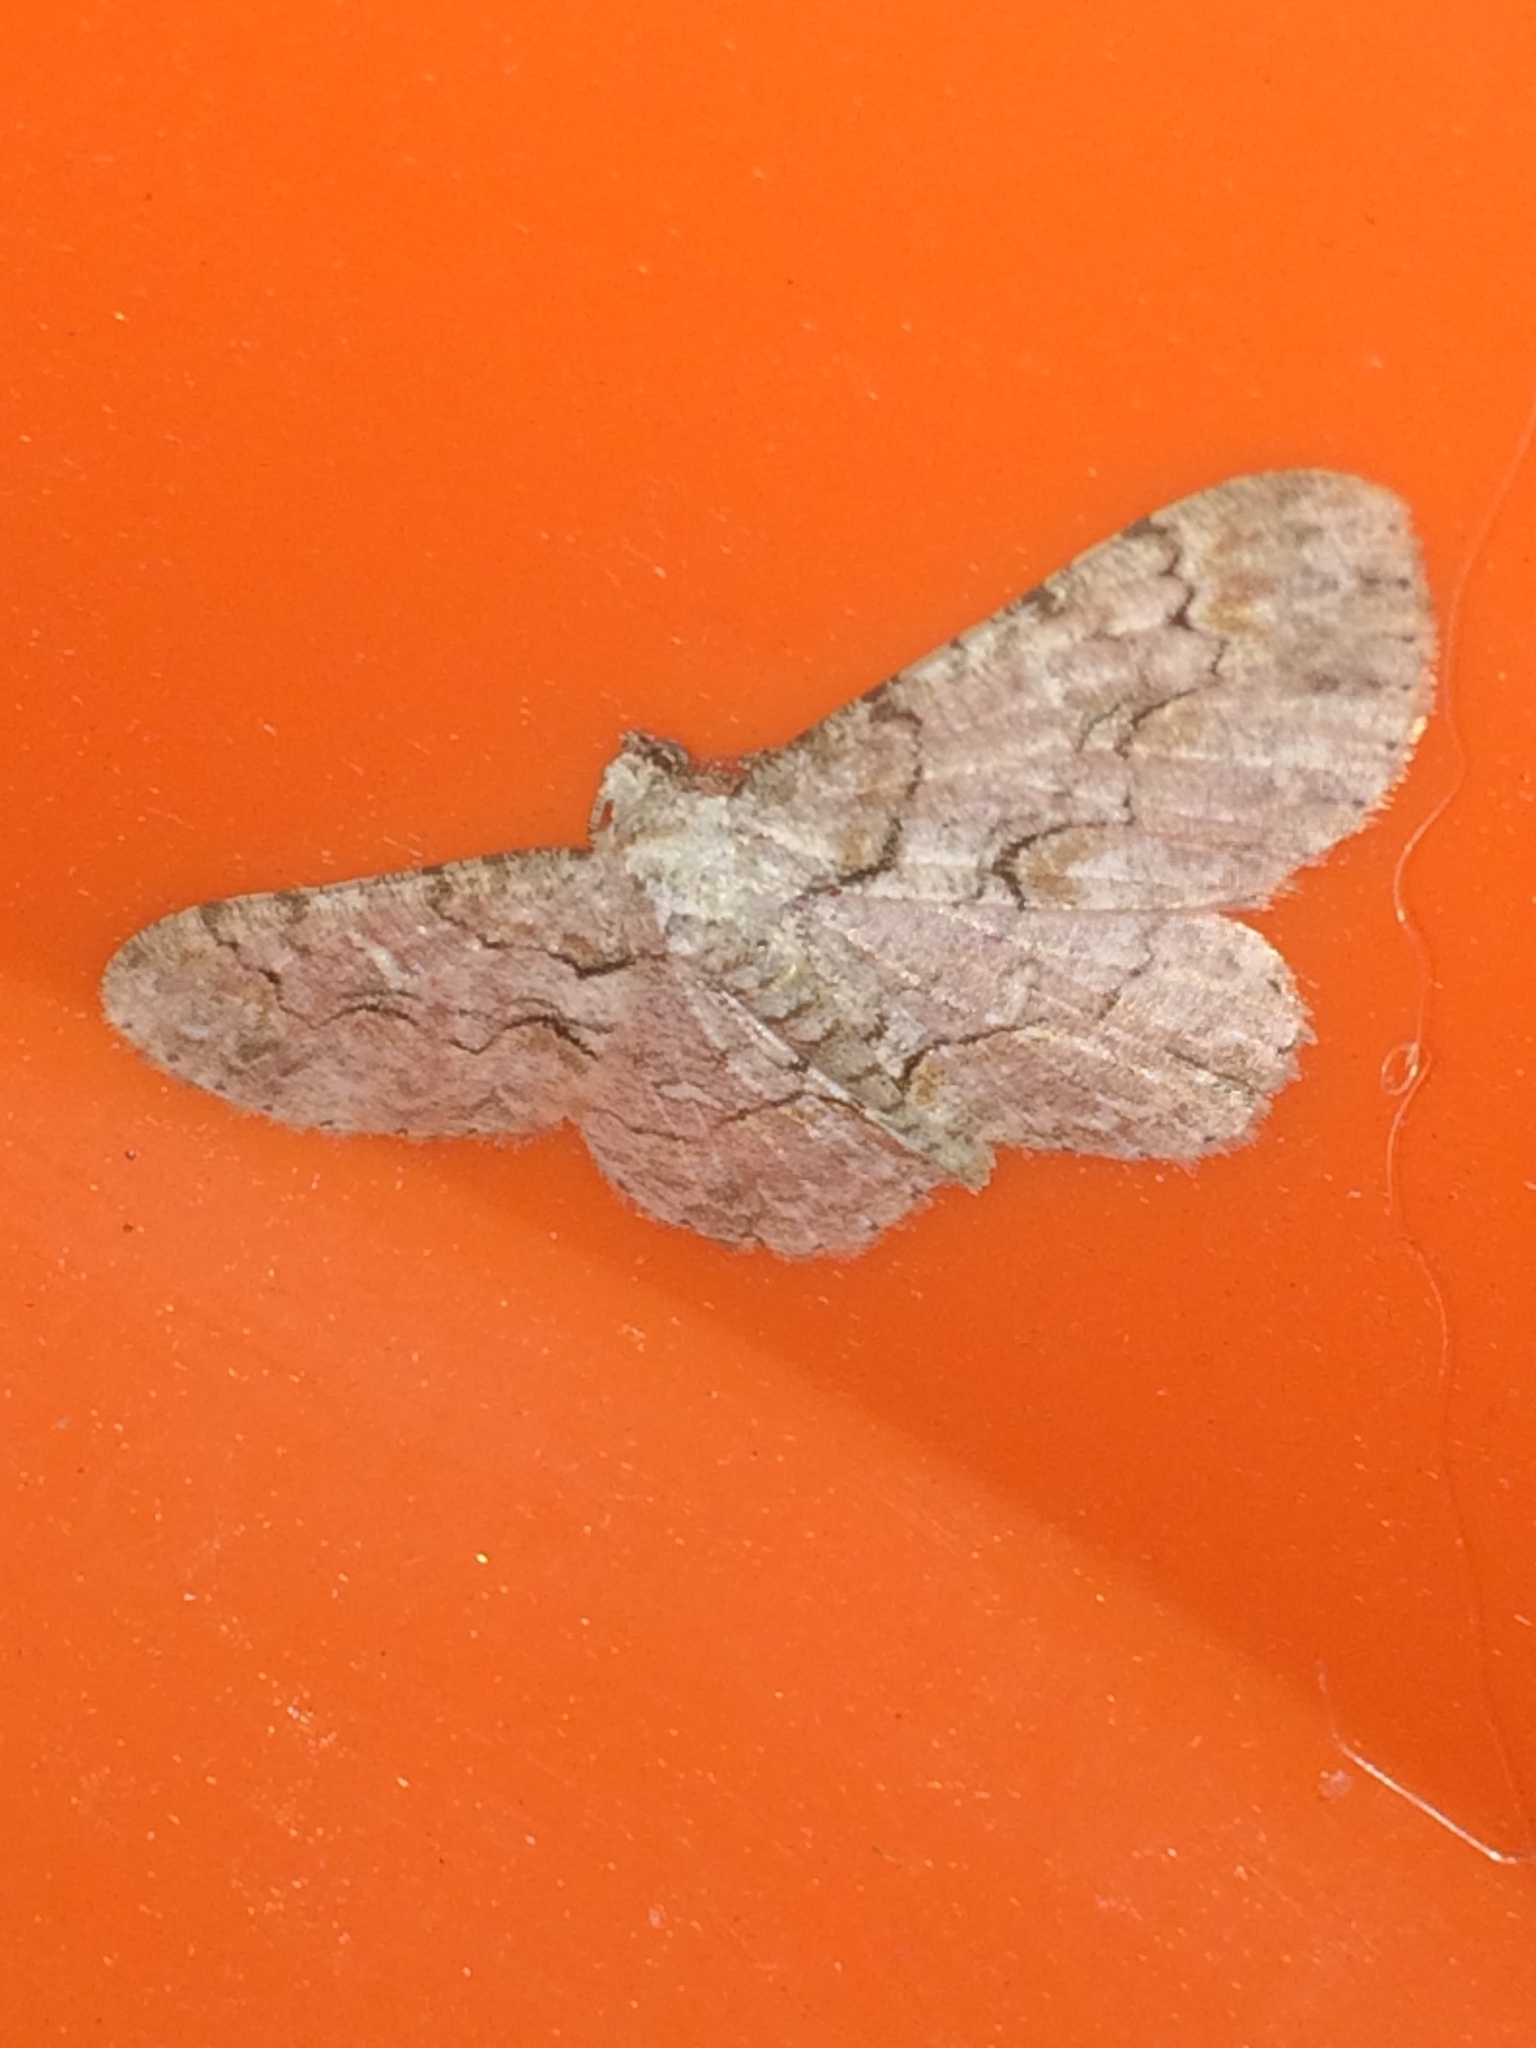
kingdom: Animalia
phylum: Arthropoda
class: Insecta
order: Lepidoptera
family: Geometridae
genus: Iridopsis
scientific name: Iridopsis defectaria
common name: Brown-shaded gray
